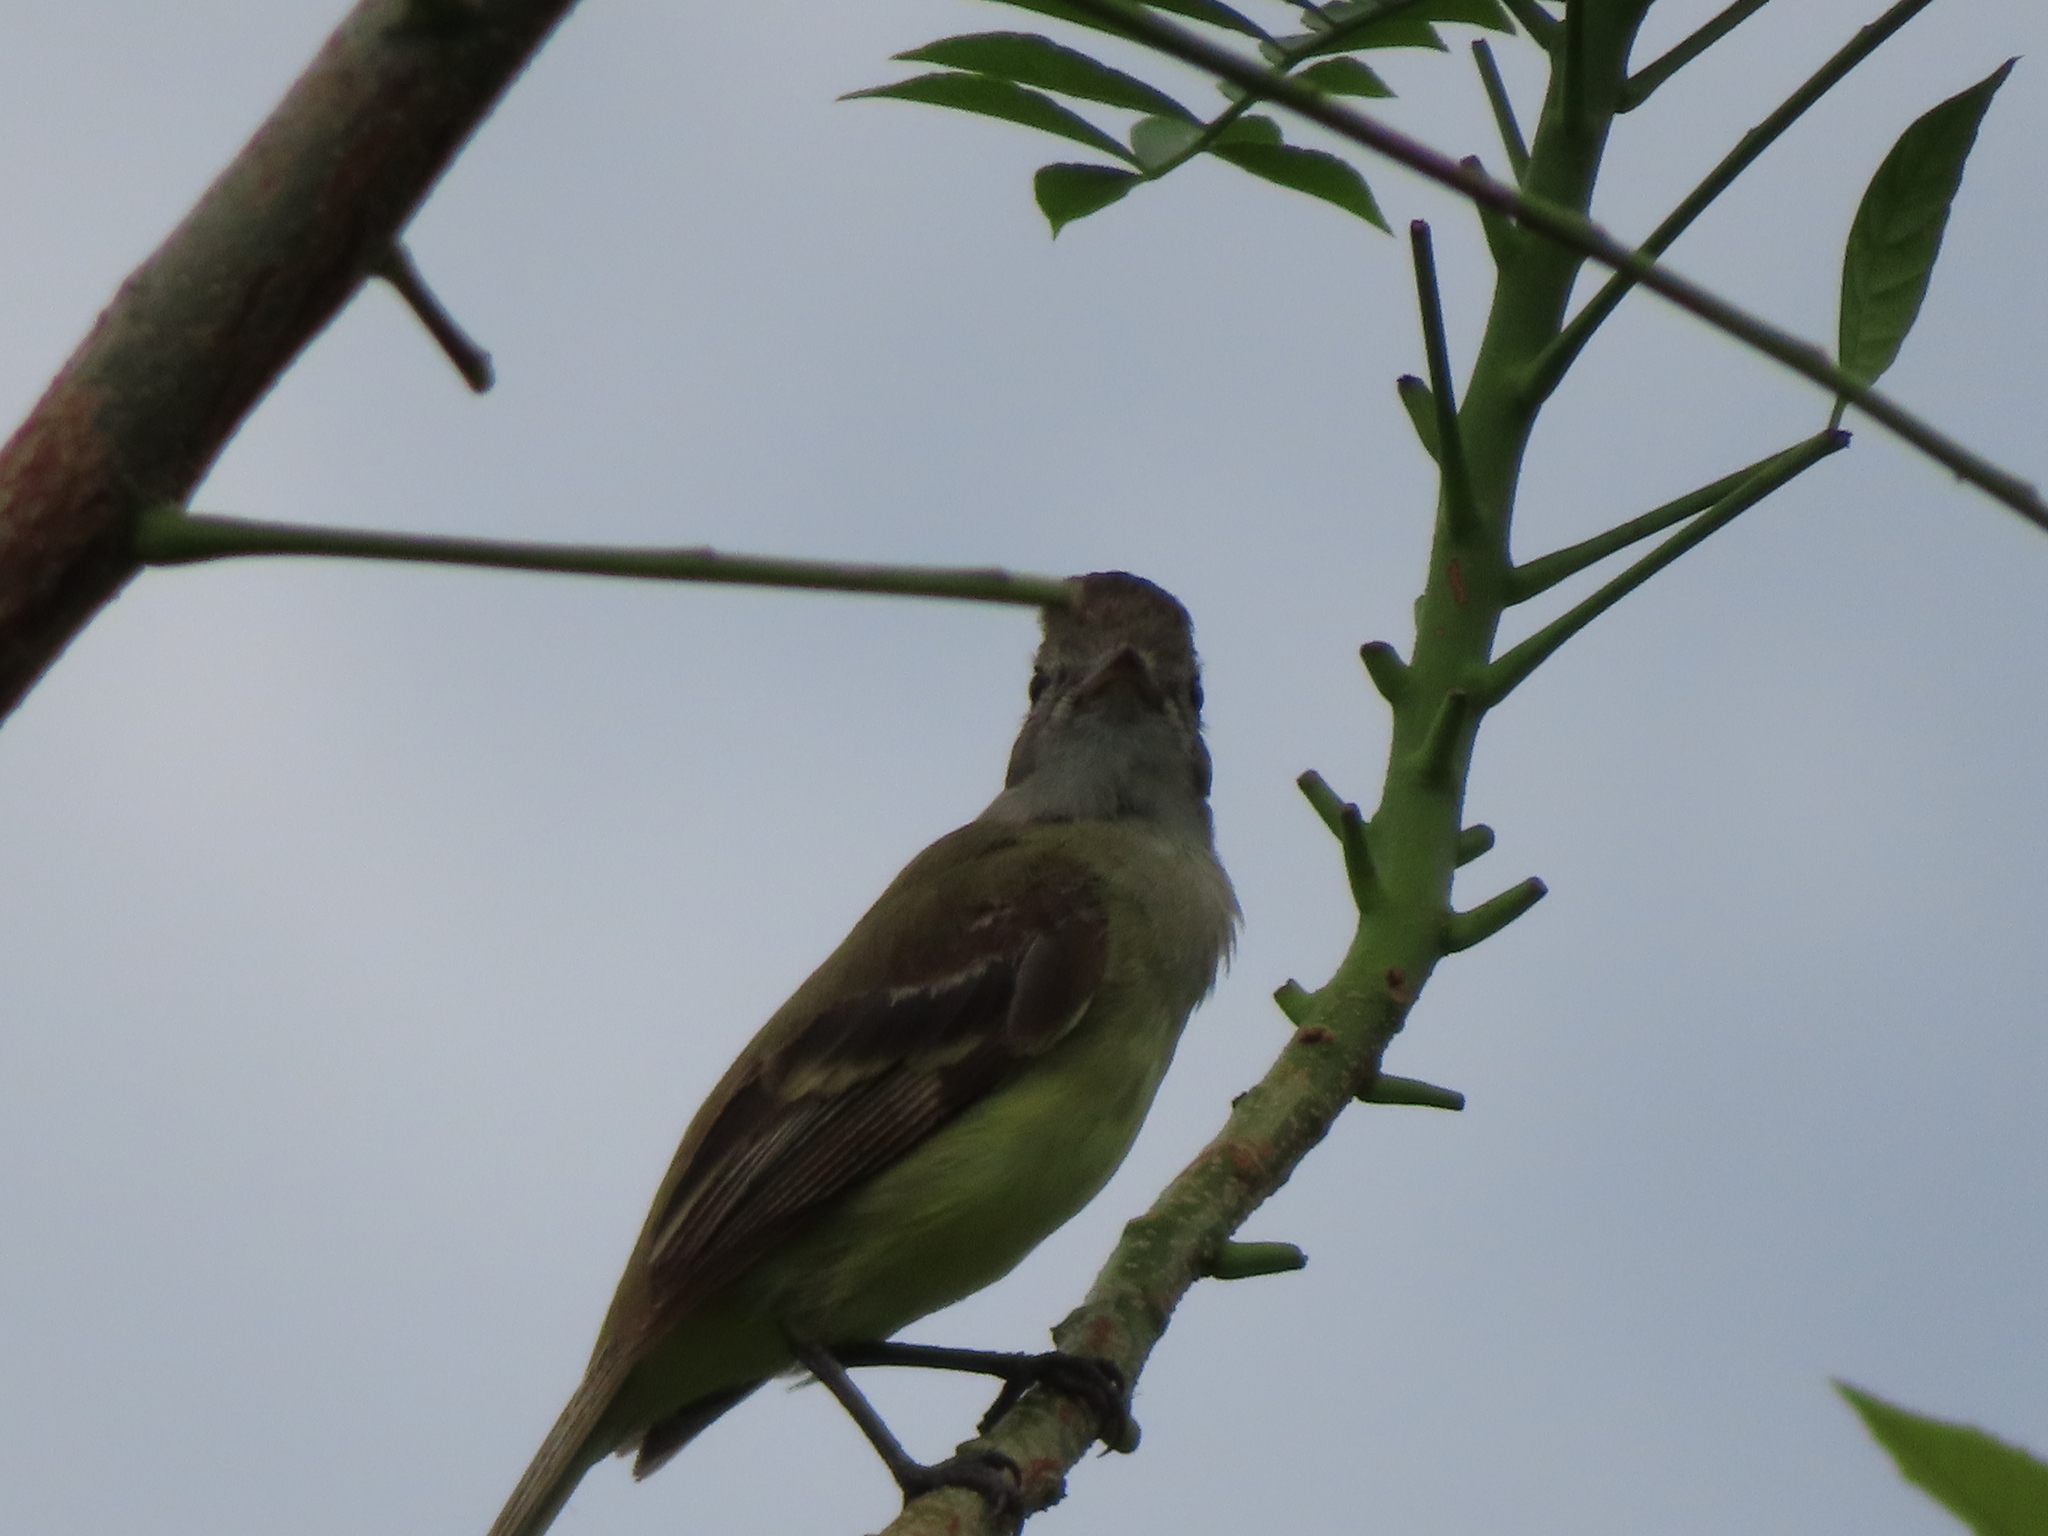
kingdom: Animalia
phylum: Chordata
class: Aves
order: Passeriformes
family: Tyrannidae
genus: Elaenia
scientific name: Elaenia flavogaster
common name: Yellow-bellied elaenia
